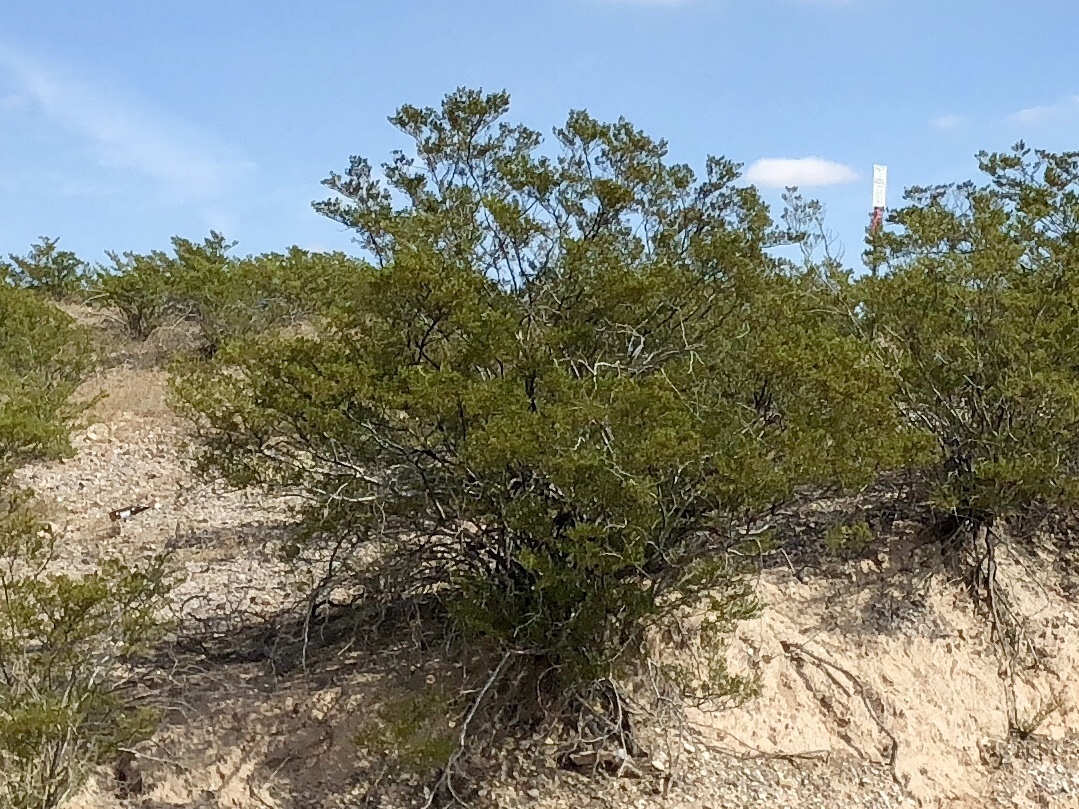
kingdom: Plantae
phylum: Tracheophyta
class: Magnoliopsida
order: Zygophyllales
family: Zygophyllaceae
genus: Larrea
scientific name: Larrea tridentata
